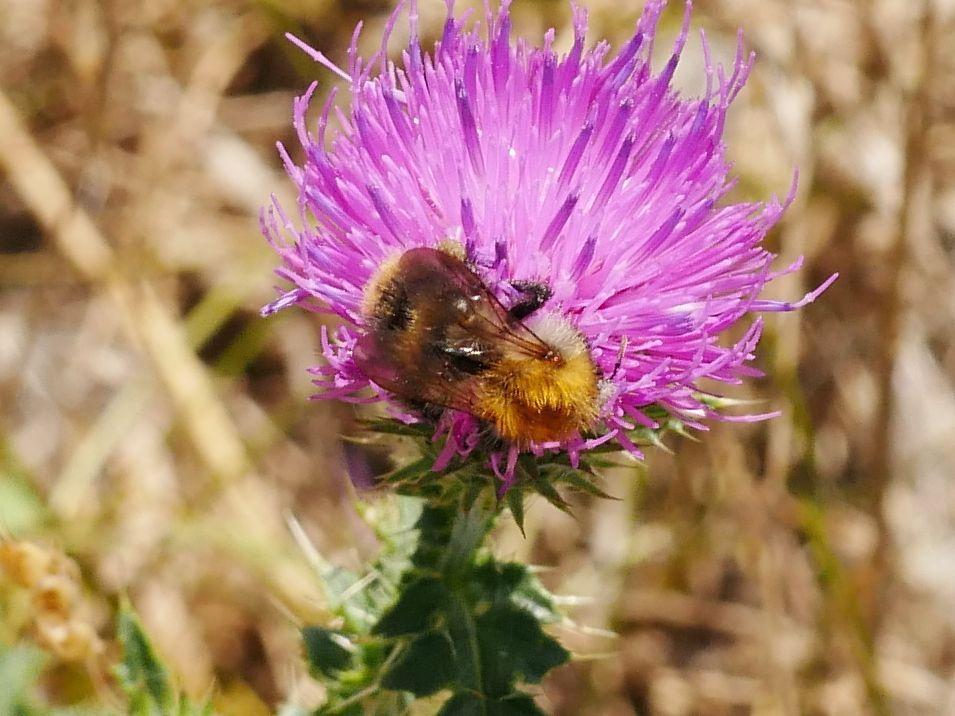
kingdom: Animalia
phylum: Arthropoda
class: Insecta
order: Hymenoptera
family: Apidae
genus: Bombus
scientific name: Bombus pascuorum
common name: Common carder bee
